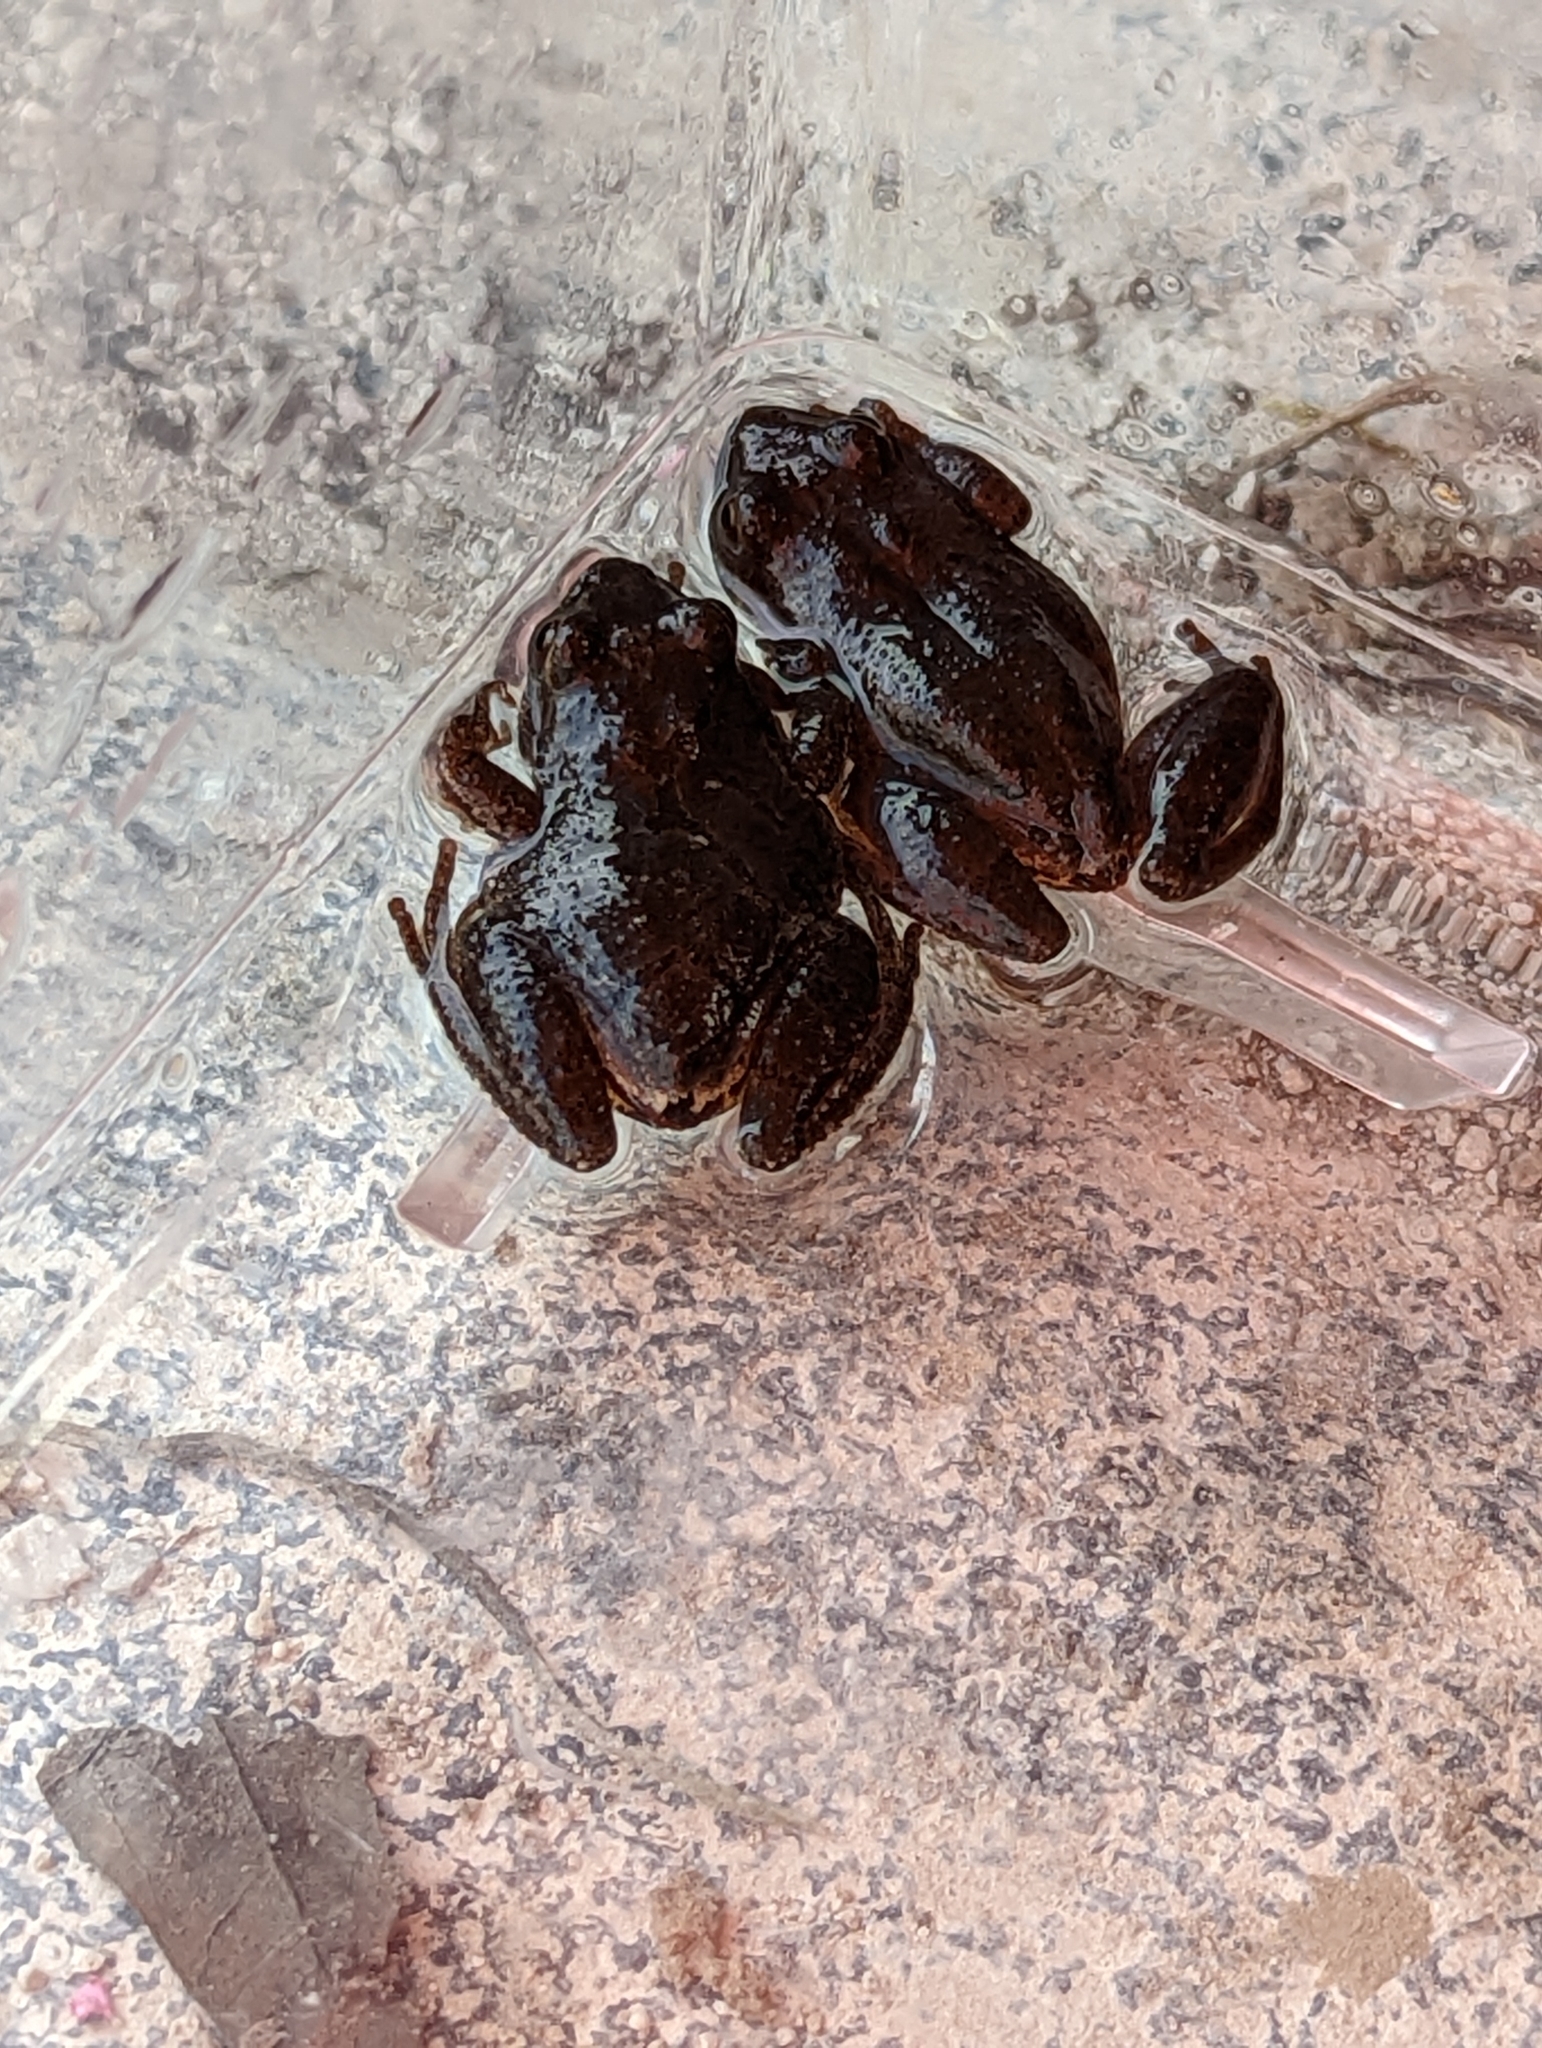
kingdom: Animalia
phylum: Chordata
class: Amphibia
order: Anura
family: Hylidae
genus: Pseudacris
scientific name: Pseudacris crucifer
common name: Spring peeper
